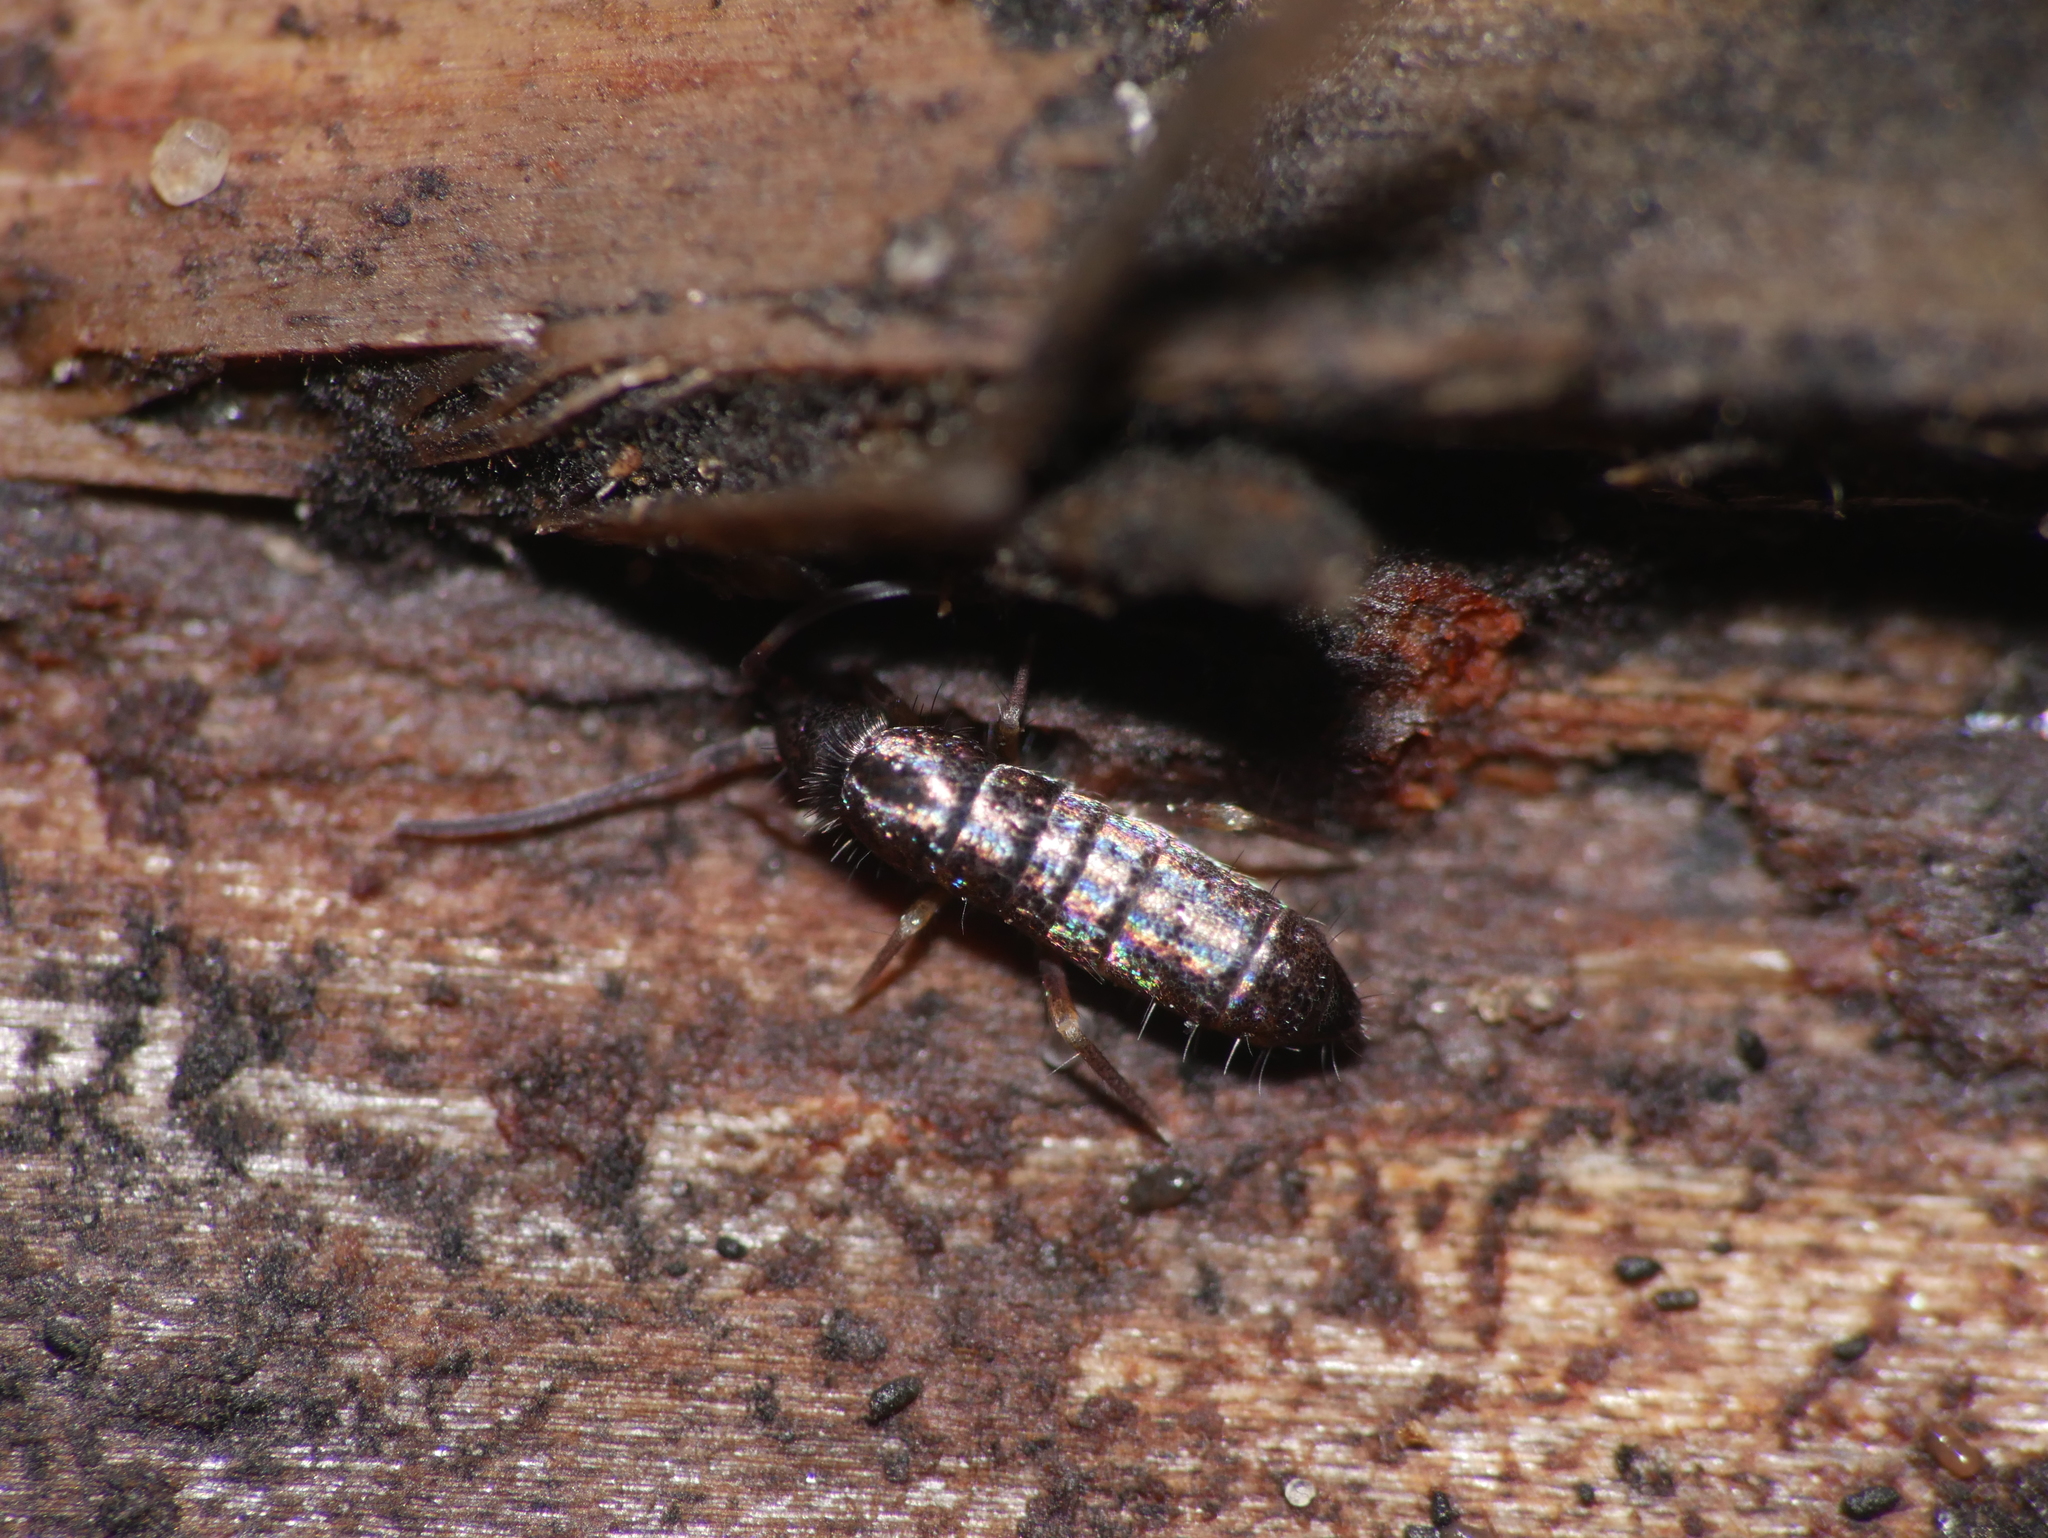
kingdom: Animalia
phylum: Arthropoda
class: Collembola
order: Entomobryomorpha
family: Tomoceridae
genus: Tomocerus
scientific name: Tomocerus vulgaris
